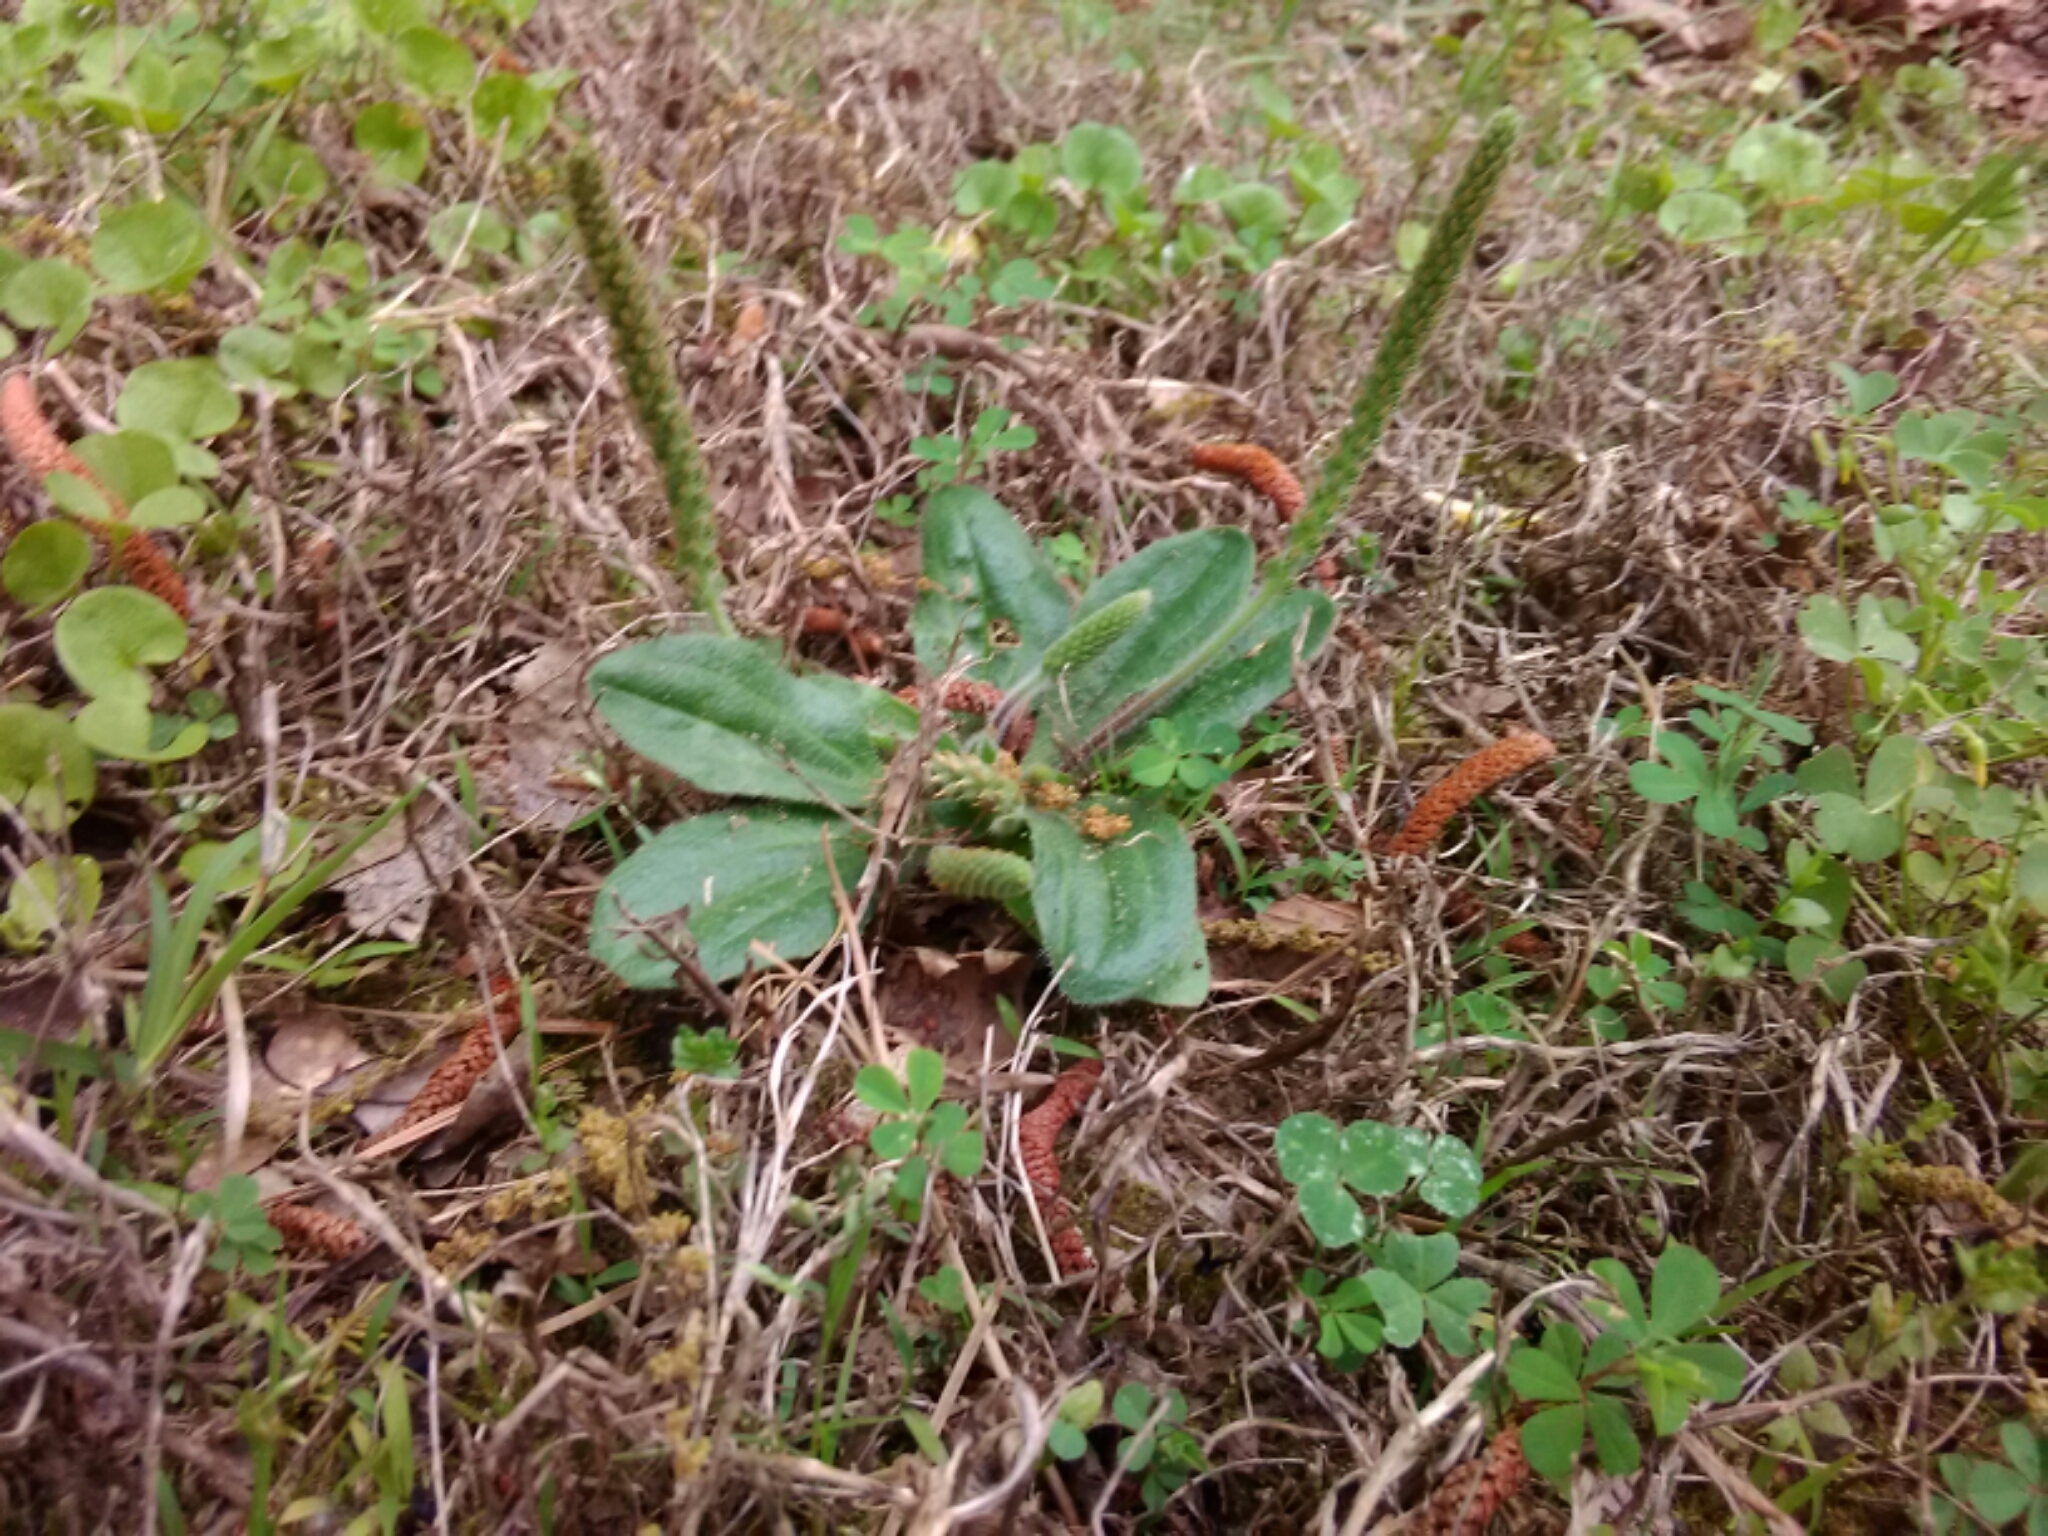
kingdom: Plantae
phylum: Tracheophyta
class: Magnoliopsida
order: Lamiales
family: Plantaginaceae
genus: Plantago
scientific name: Plantago major
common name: Common plantain
